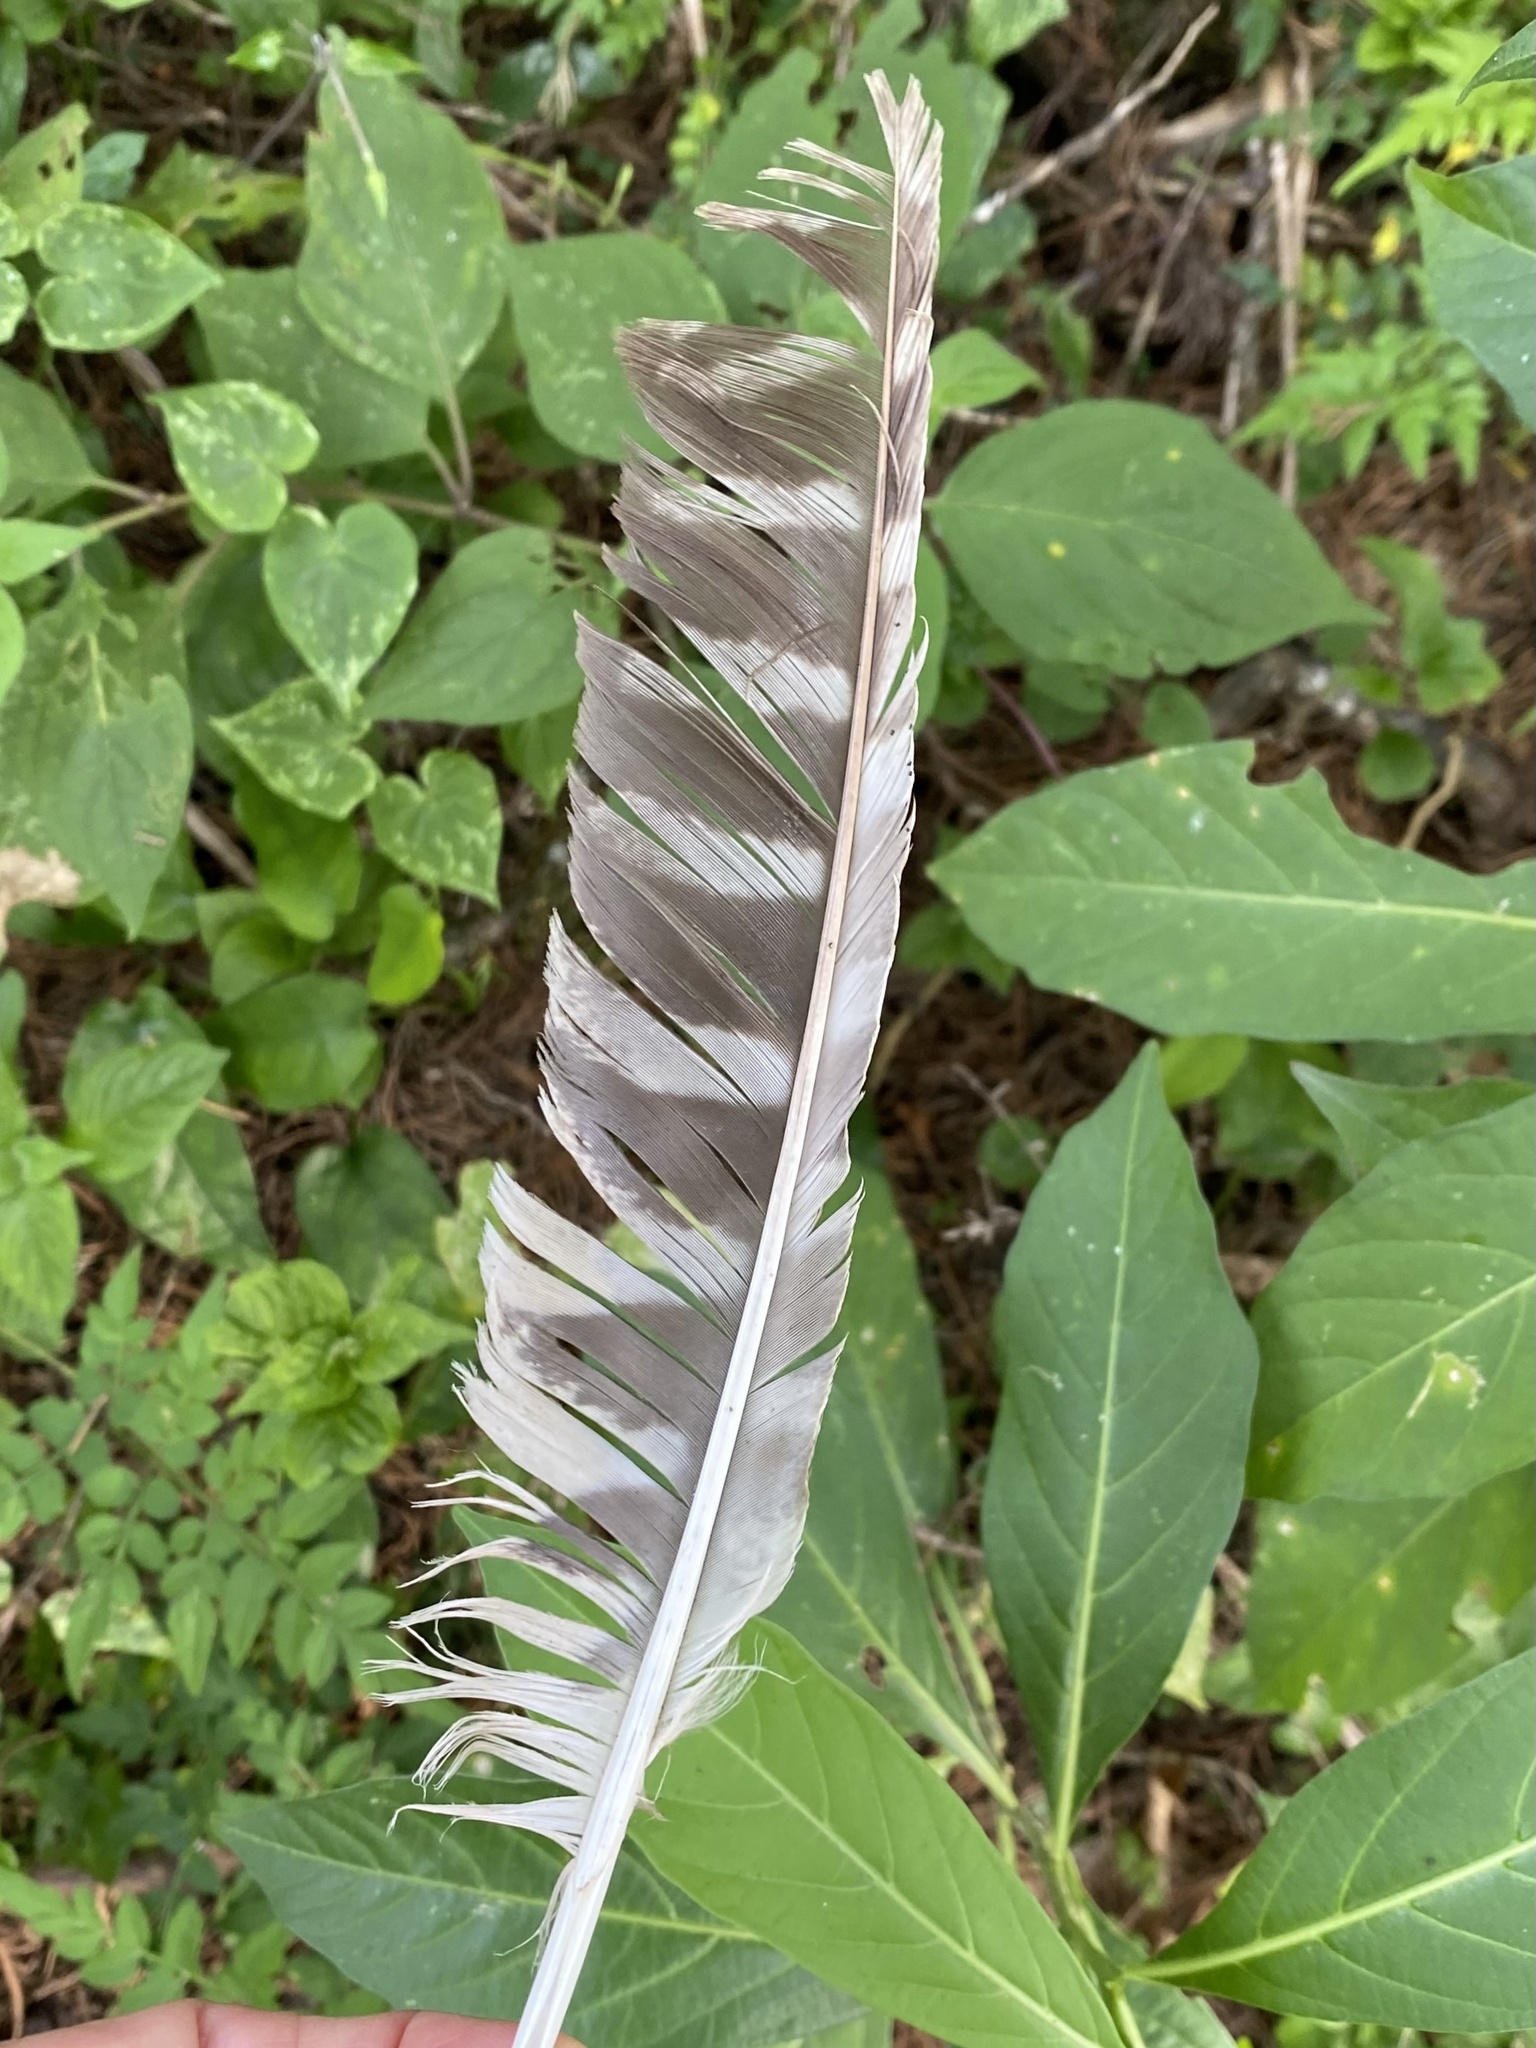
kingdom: Animalia
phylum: Chordata
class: Aves
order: Strigiformes
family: Strigidae
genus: Strix
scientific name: Strix virgata
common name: Mottled owl
